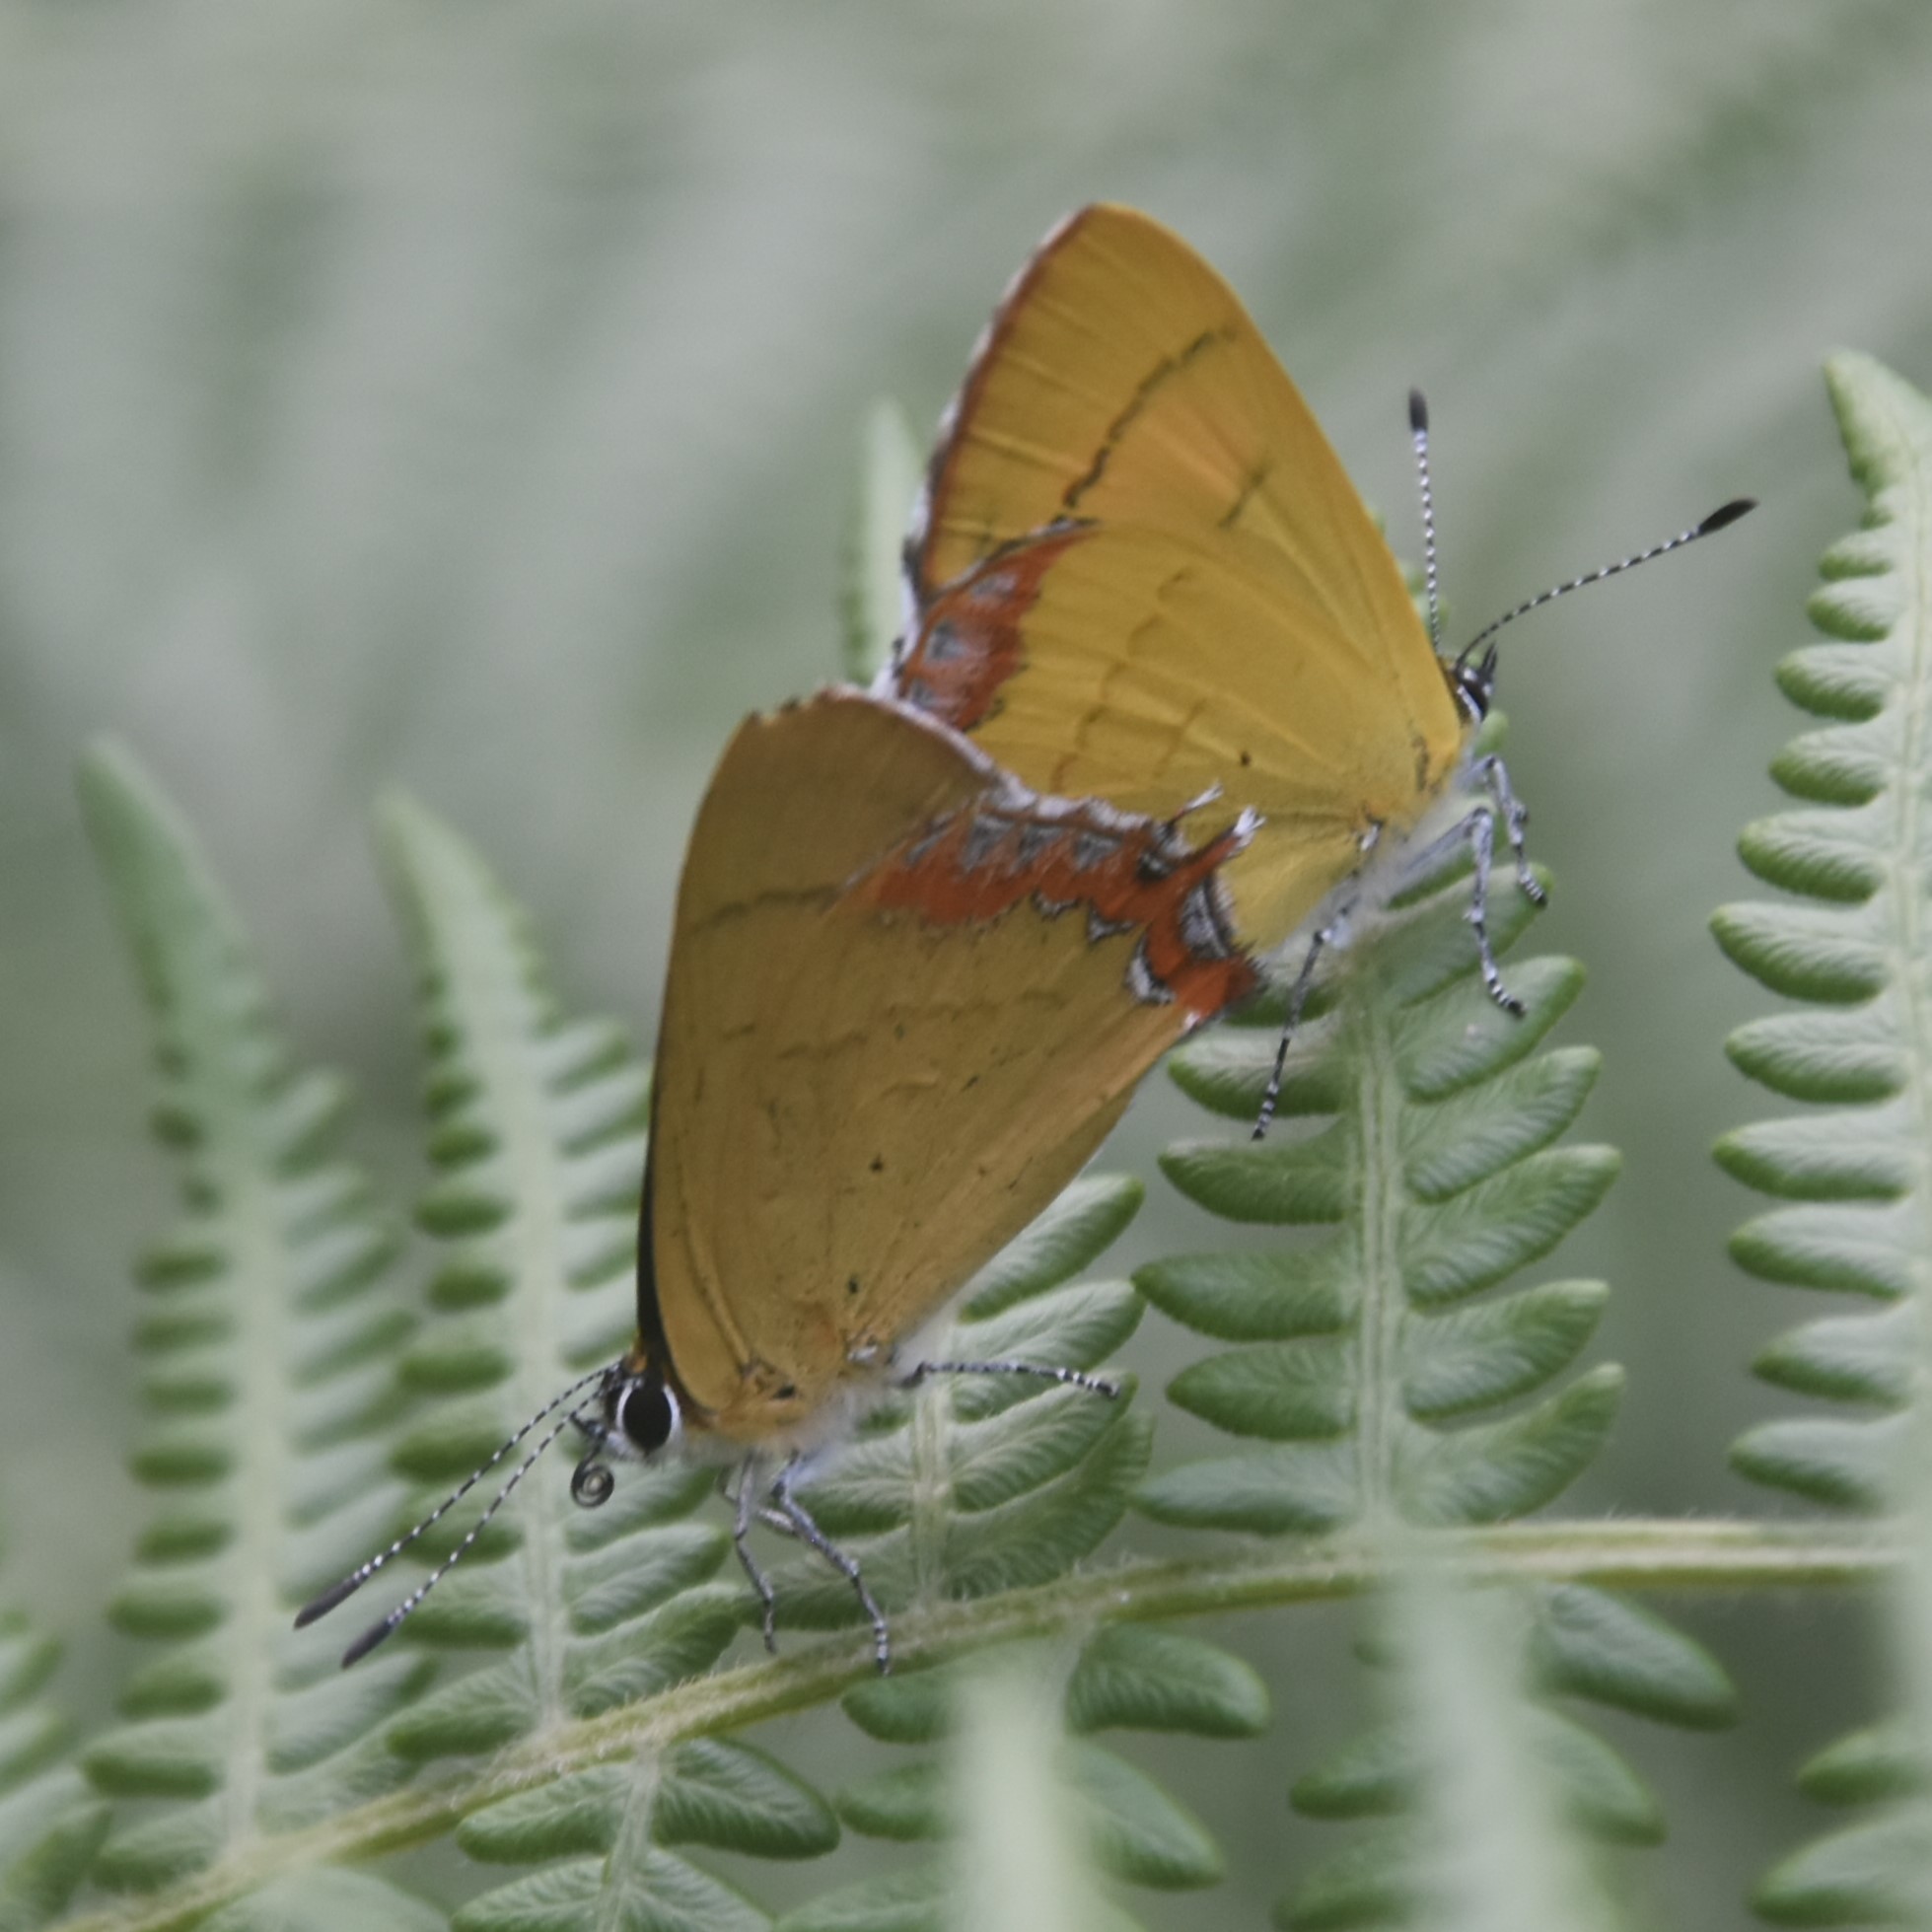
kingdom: Animalia
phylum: Arthropoda
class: Insecta
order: Lepidoptera
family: Lycaenidae
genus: Heliophorus
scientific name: Heliophorus
